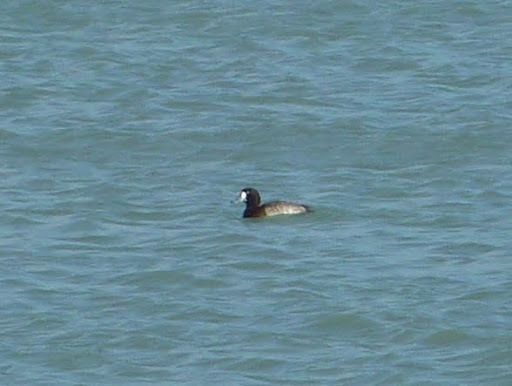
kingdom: Animalia
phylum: Chordata
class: Aves
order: Anseriformes
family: Anatidae
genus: Aythya
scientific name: Aythya marila
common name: Greater scaup
